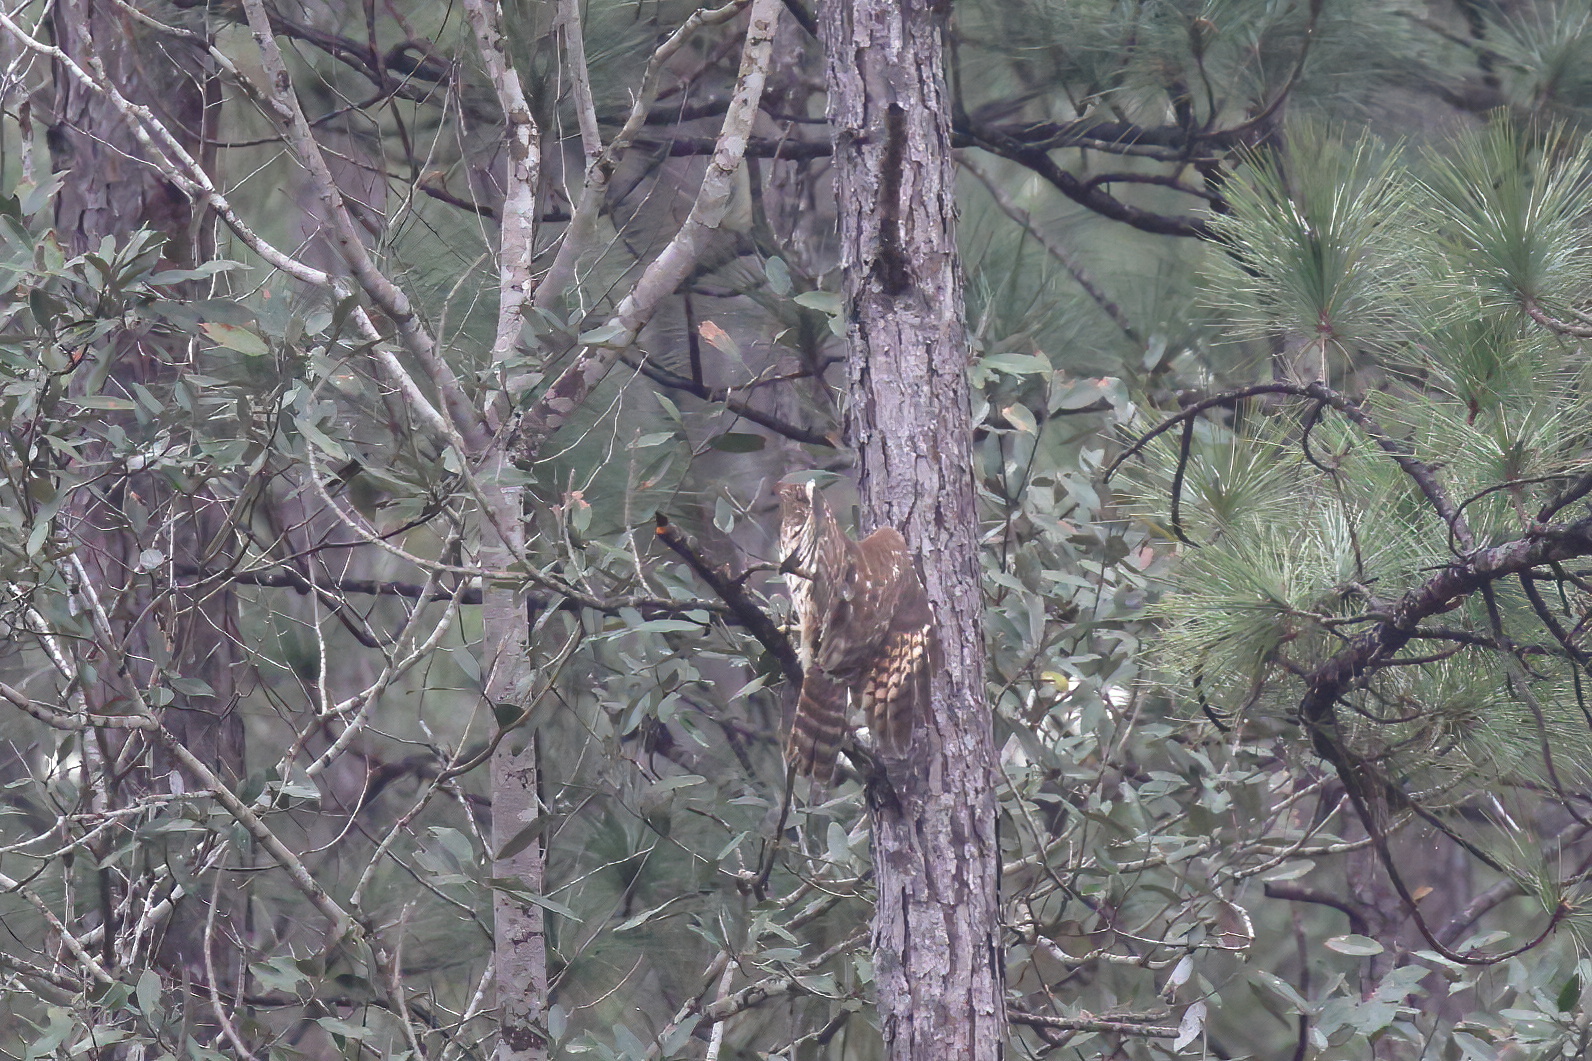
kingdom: Animalia
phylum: Chordata
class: Aves
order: Accipitriformes
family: Accipitridae
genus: Buteo
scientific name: Buteo lineatus
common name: Red-shouldered hawk
